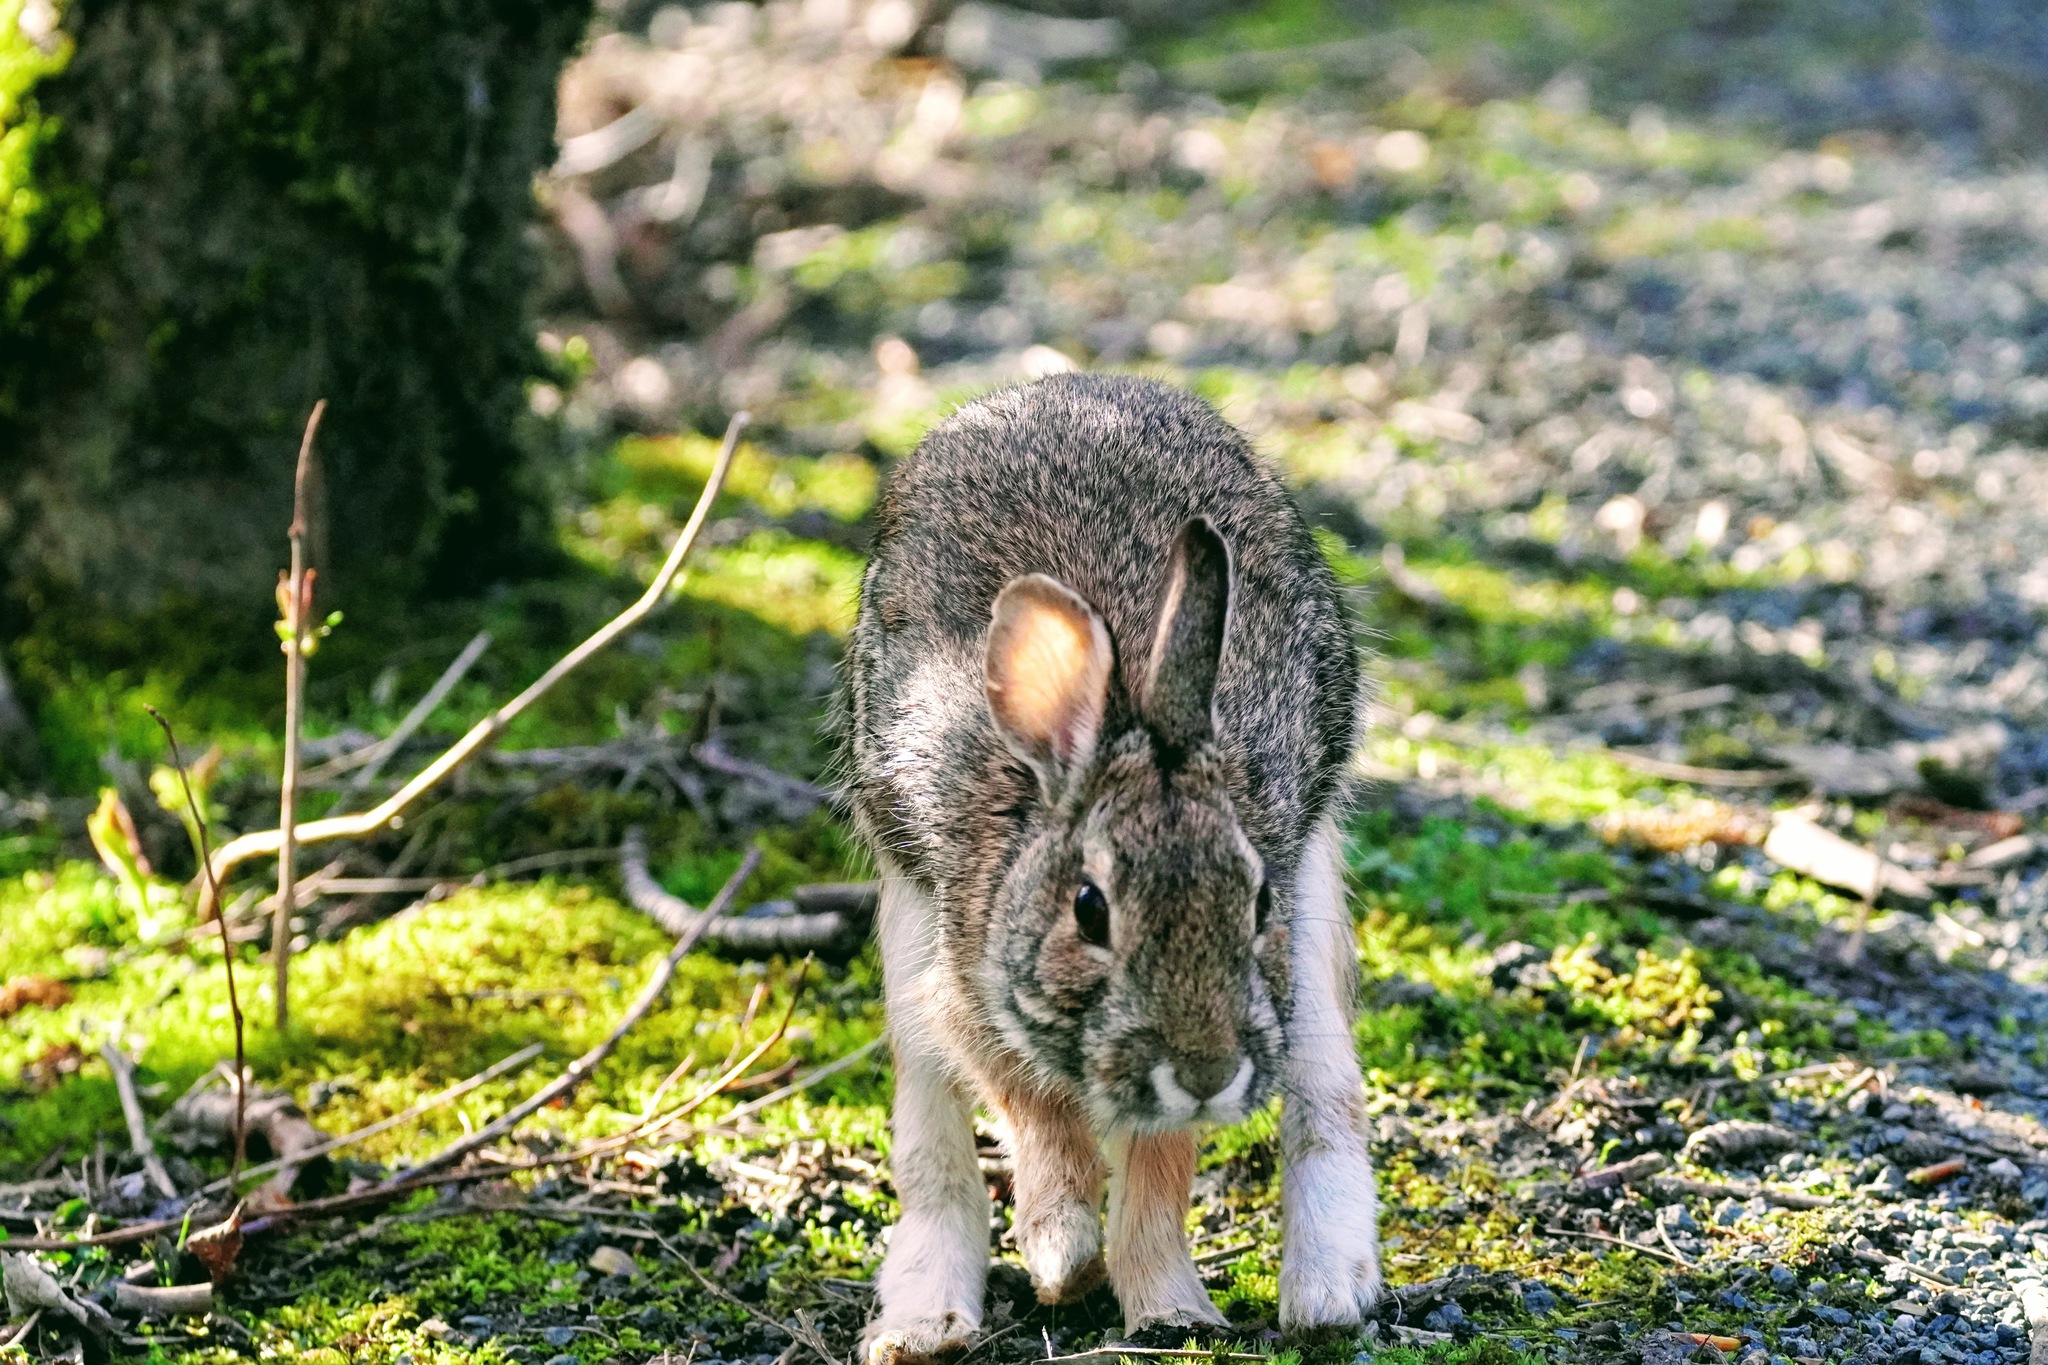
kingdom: Animalia
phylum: Chordata
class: Mammalia
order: Lagomorpha
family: Leporidae
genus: Sylvilagus
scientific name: Sylvilagus floridanus
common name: Eastern cottontail
